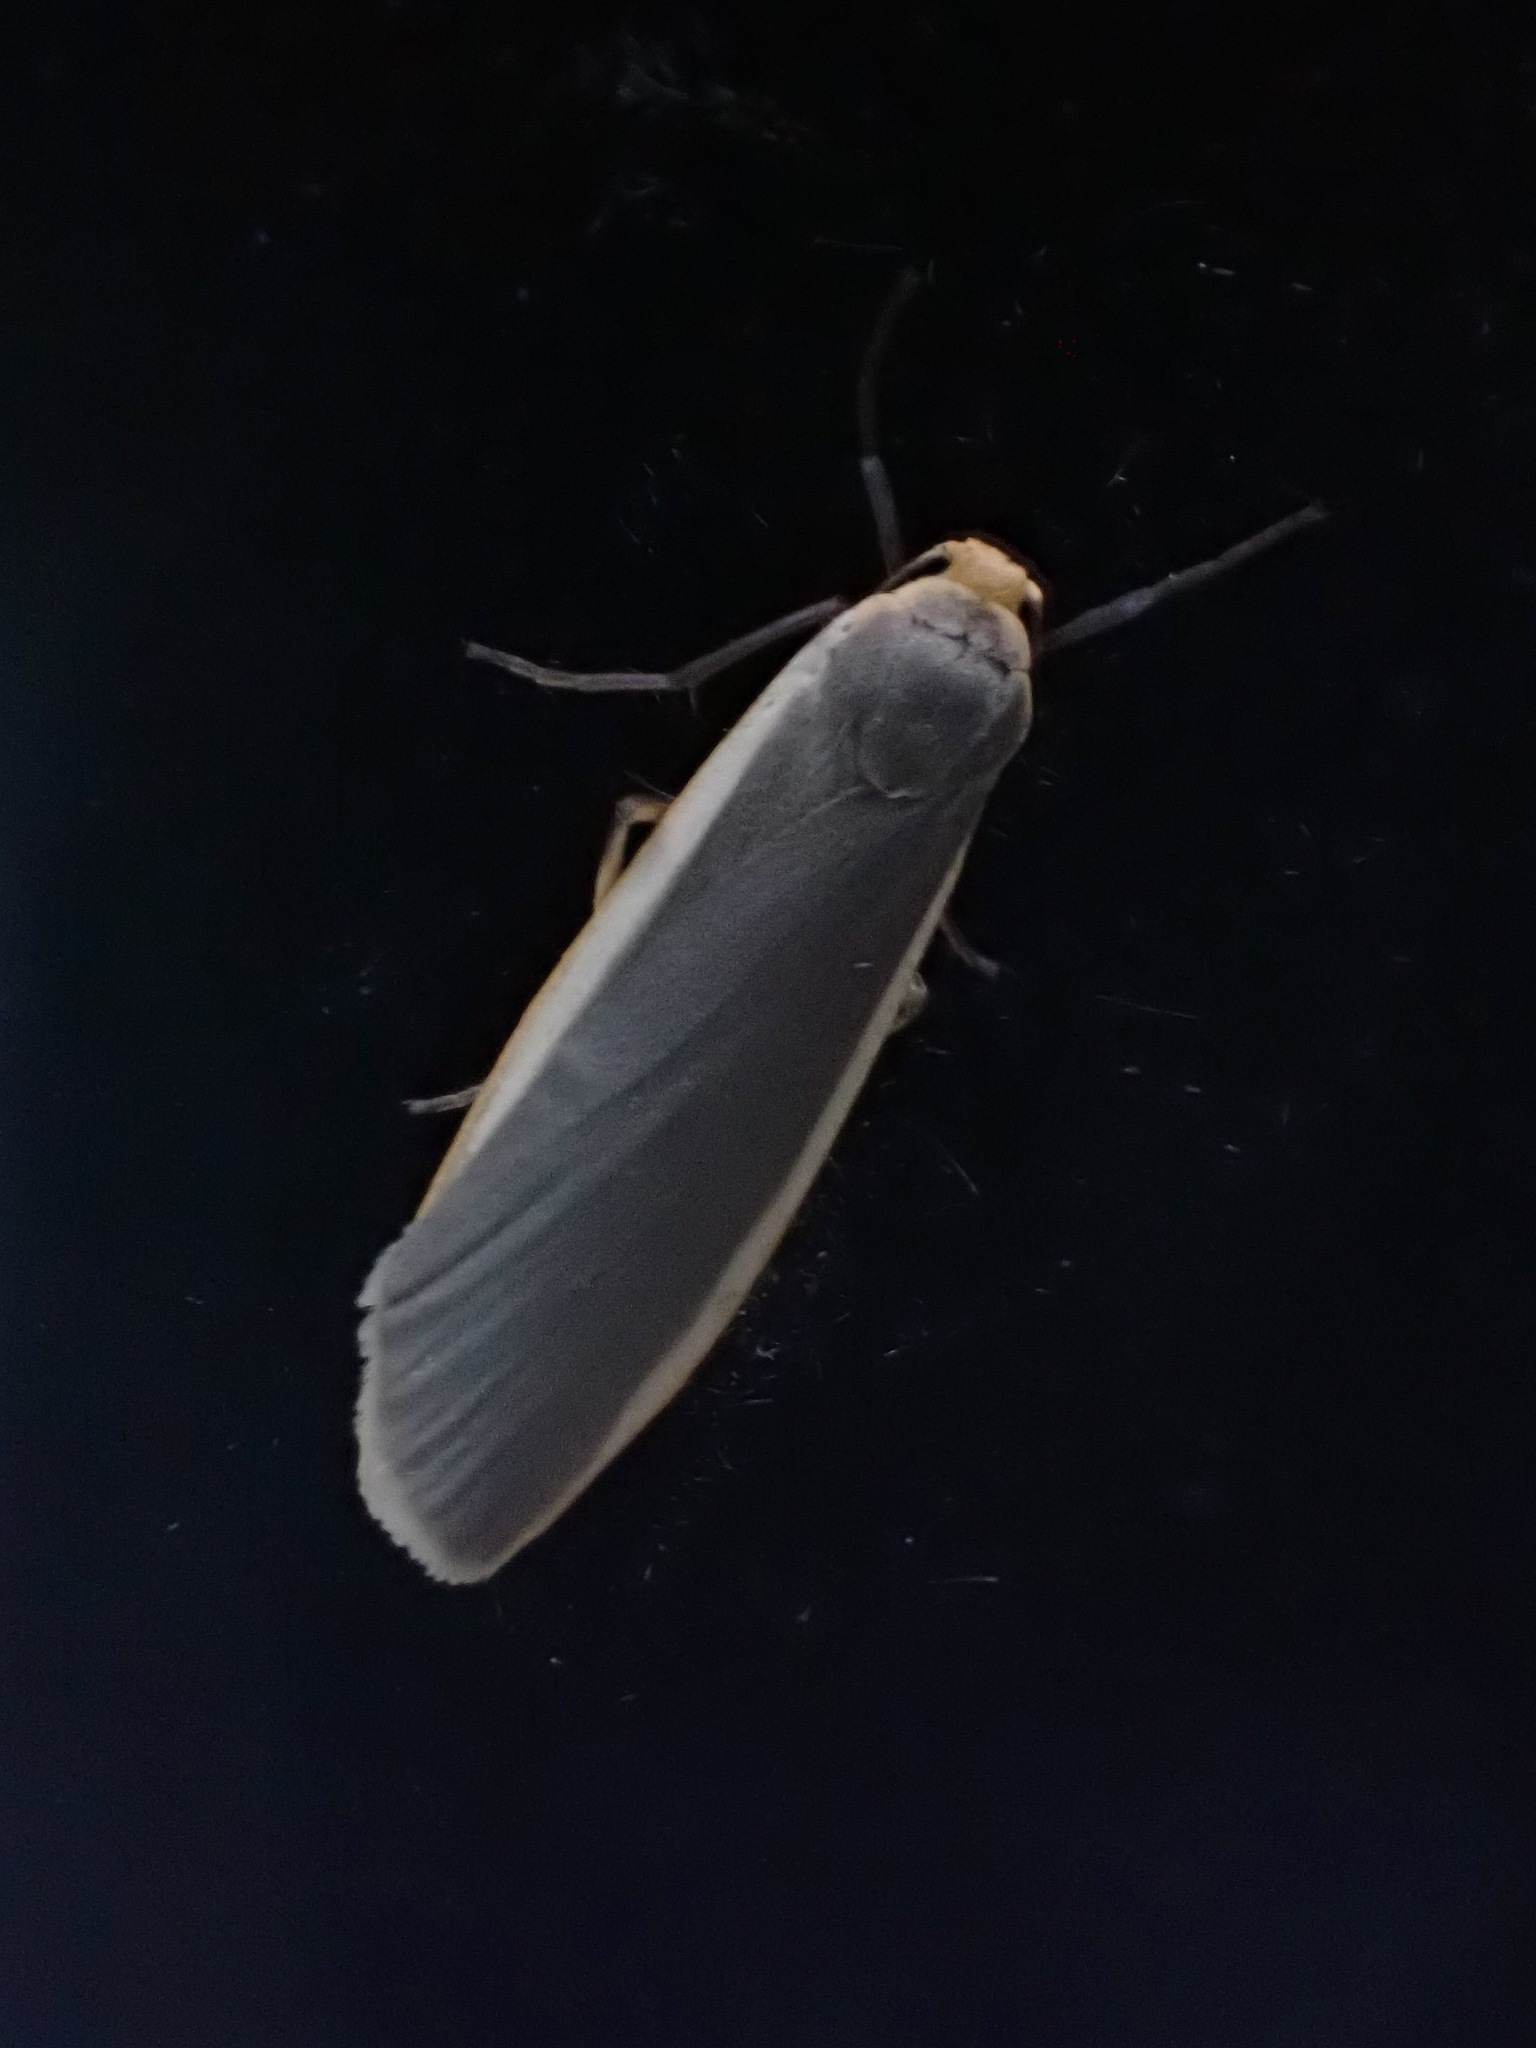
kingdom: Animalia
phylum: Arthropoda
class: Insecta
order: Lepidoptera
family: Erebidae
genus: Nyea
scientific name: Nyea lurideola
